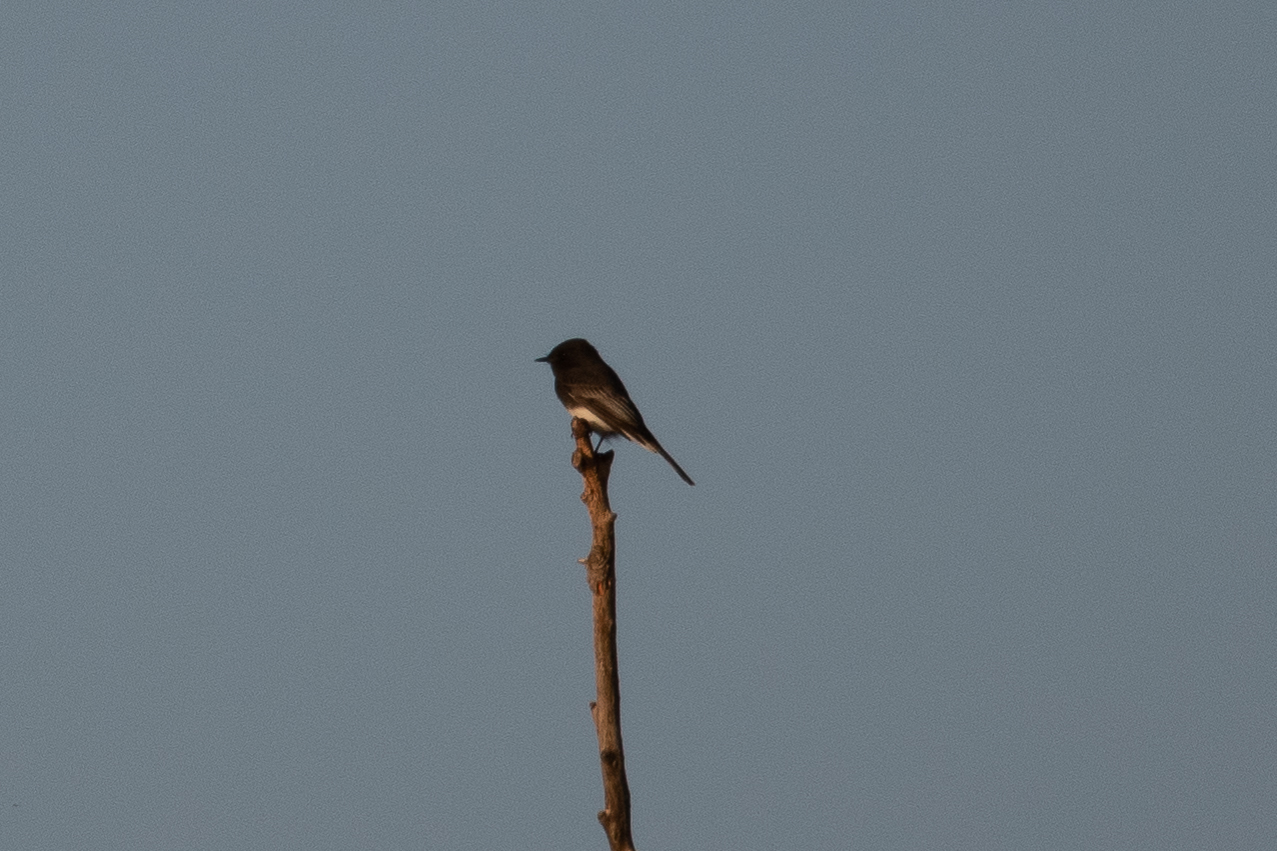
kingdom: Animalia
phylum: Chordata
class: Aves
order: Passeriformes
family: Tyrannidae
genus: Sayornis
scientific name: Sayornis nigricans
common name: Black phoebe
